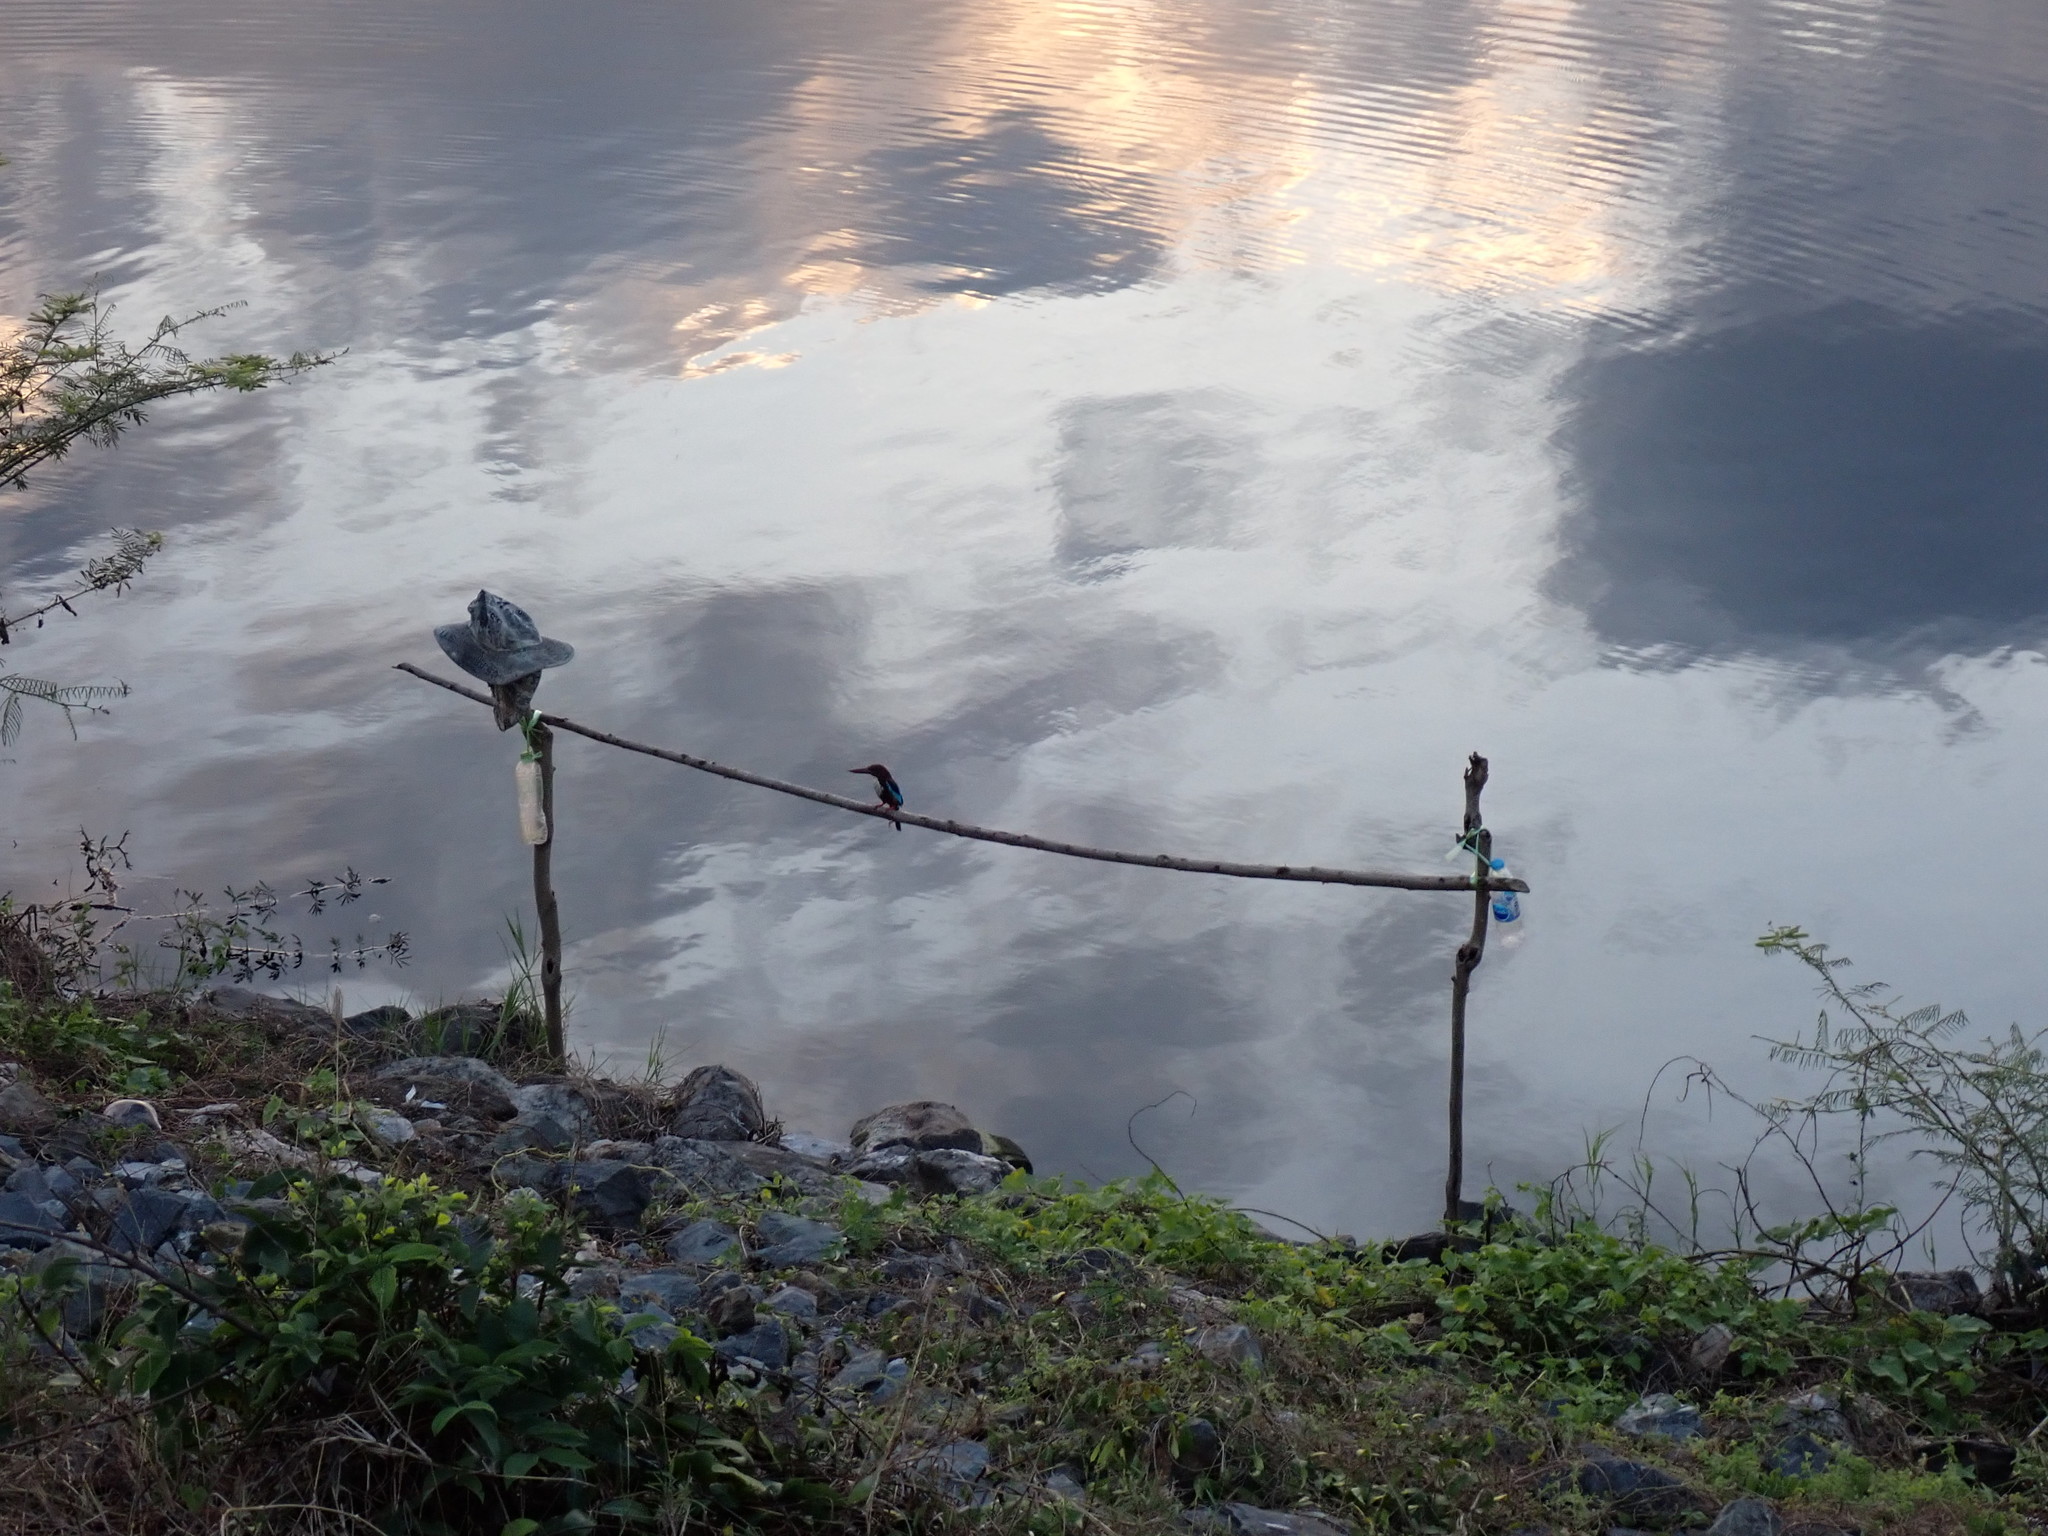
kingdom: Animalia
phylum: Chordata
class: Aves
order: Coraciiformes
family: Alcedinidae
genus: Halcyon
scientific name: Halcyon smyrnensis
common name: White-throated kingfisher
